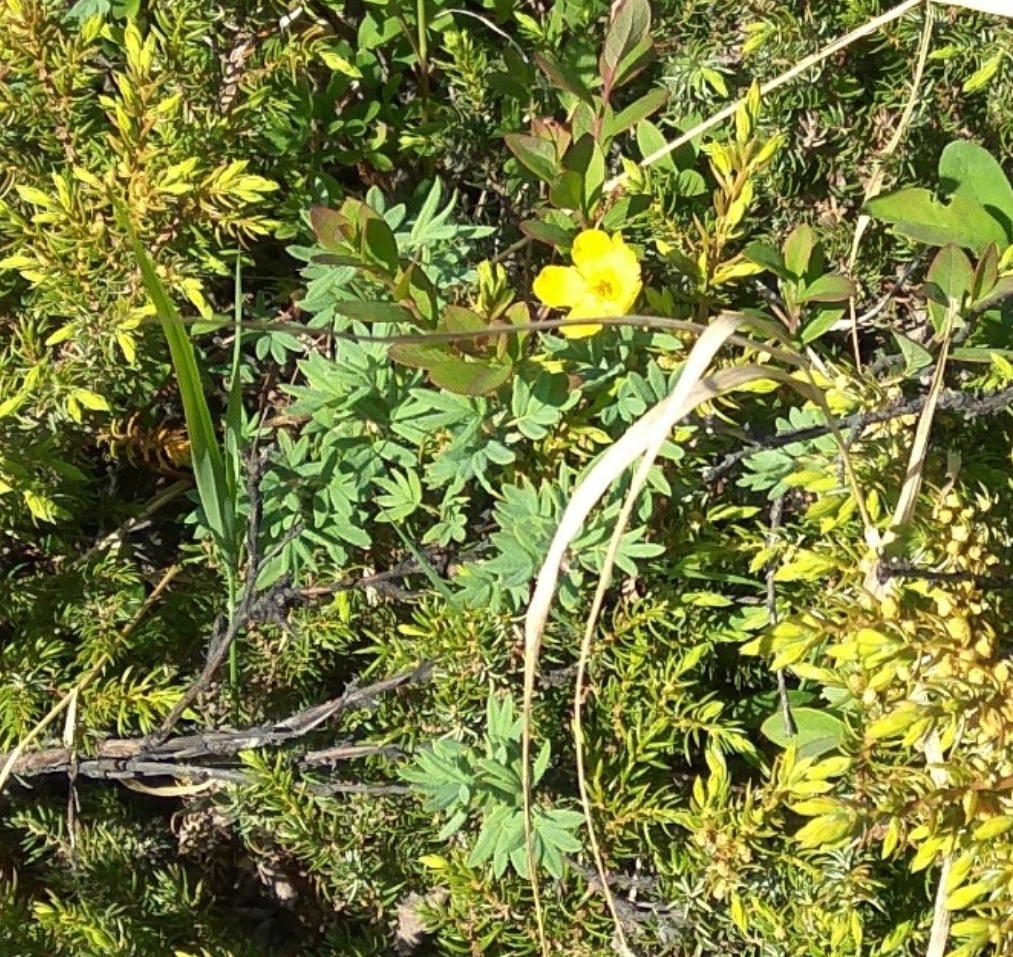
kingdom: Plantae
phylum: Tracheophyta
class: Magnoliopsida
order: Rosales
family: Rosaceae
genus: Dasiphora
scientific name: Dasiphora fruticosa
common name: Shrubby cinquefoil
